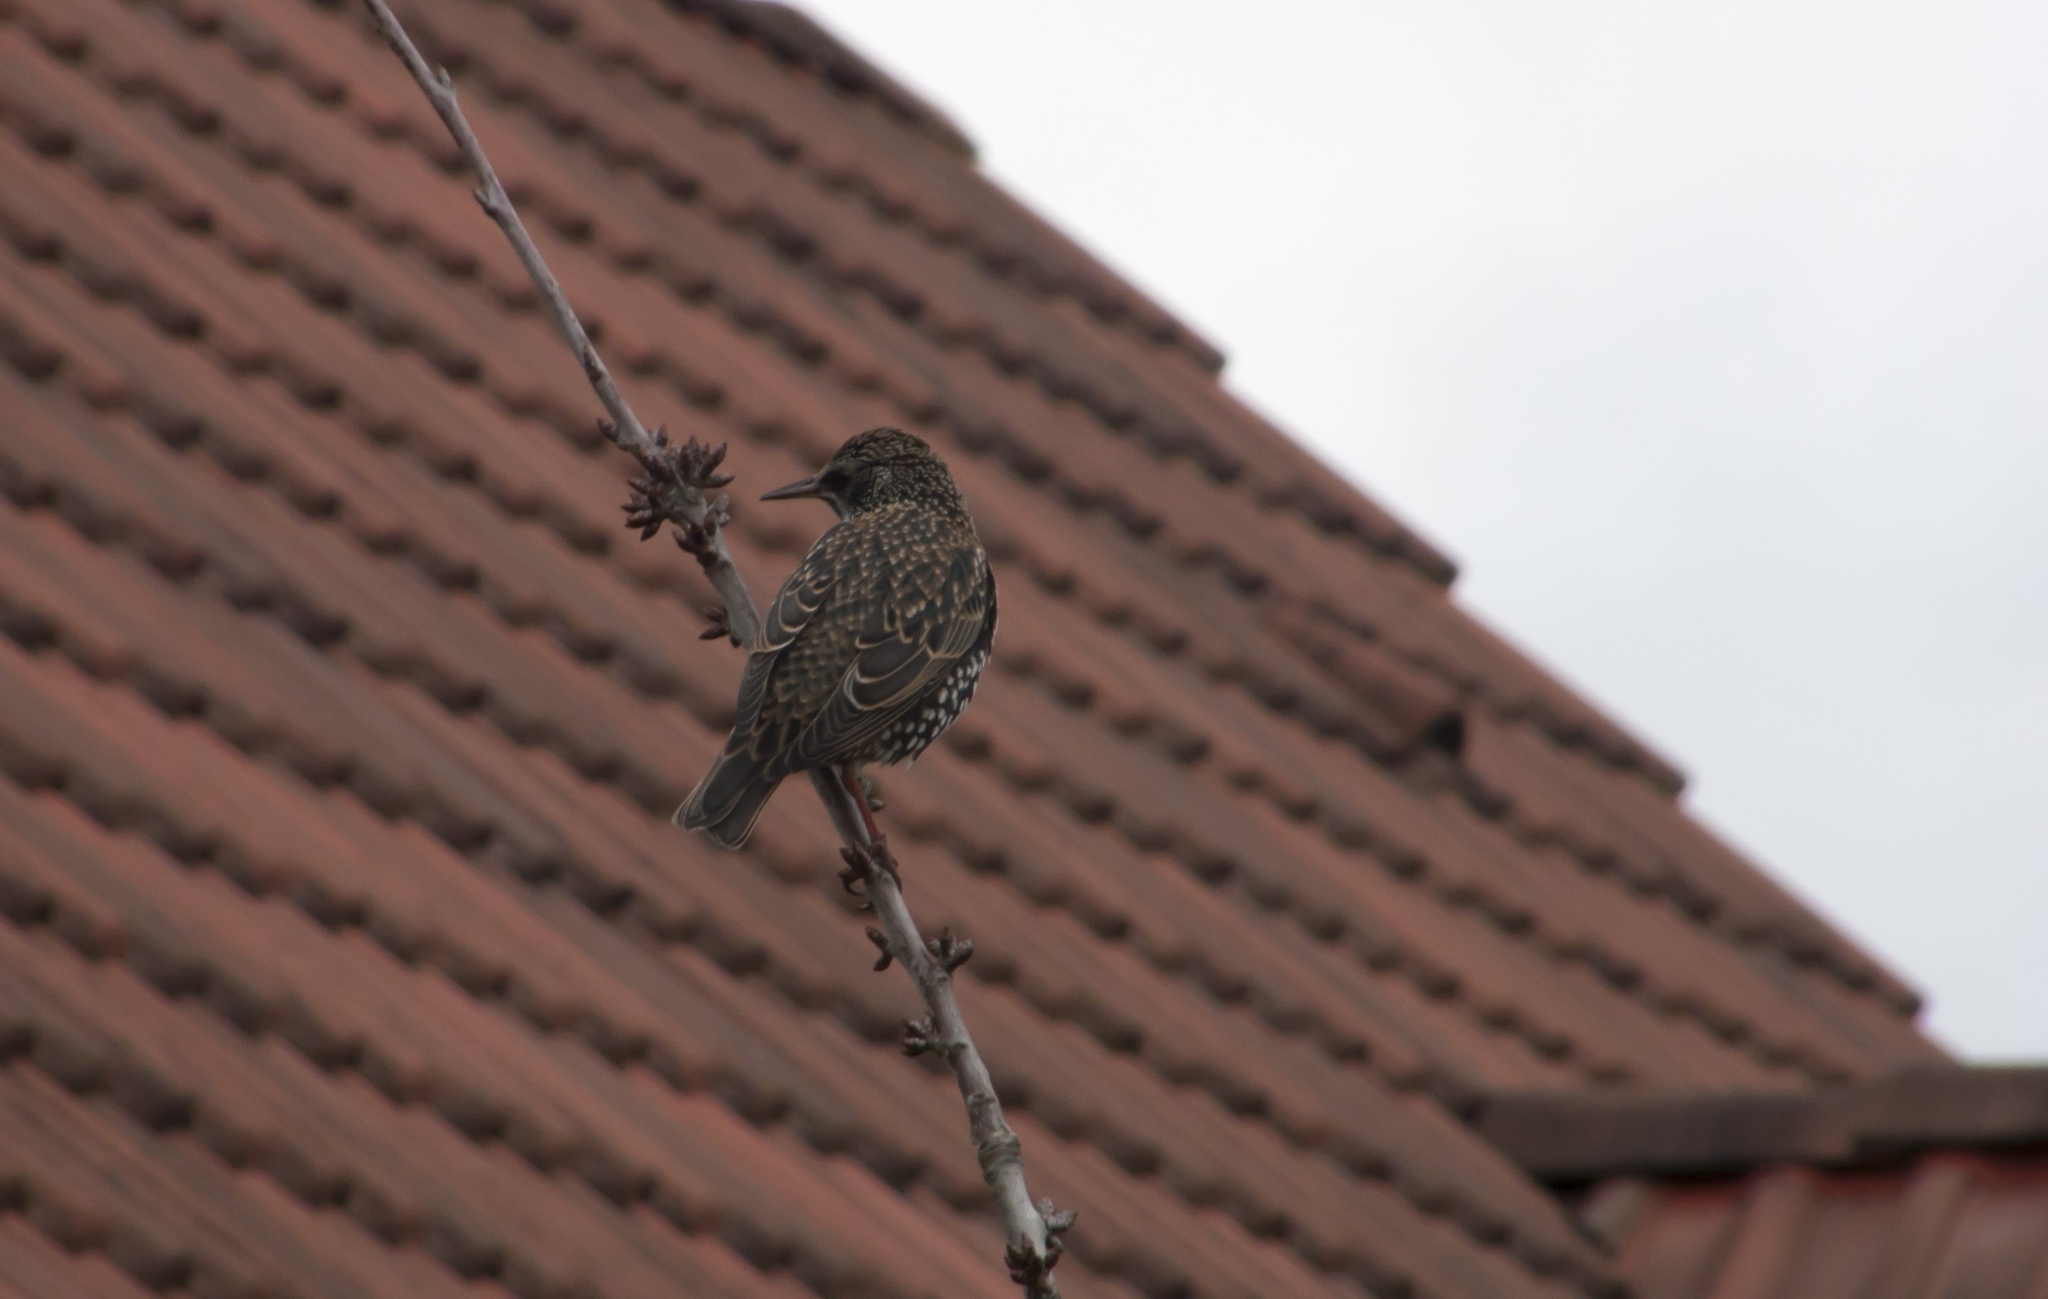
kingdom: Animalia
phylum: Chordata
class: Aves
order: Passeriformes
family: Sturnidae
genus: Sturnus
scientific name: Sturnus vulgaris
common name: Common starling
